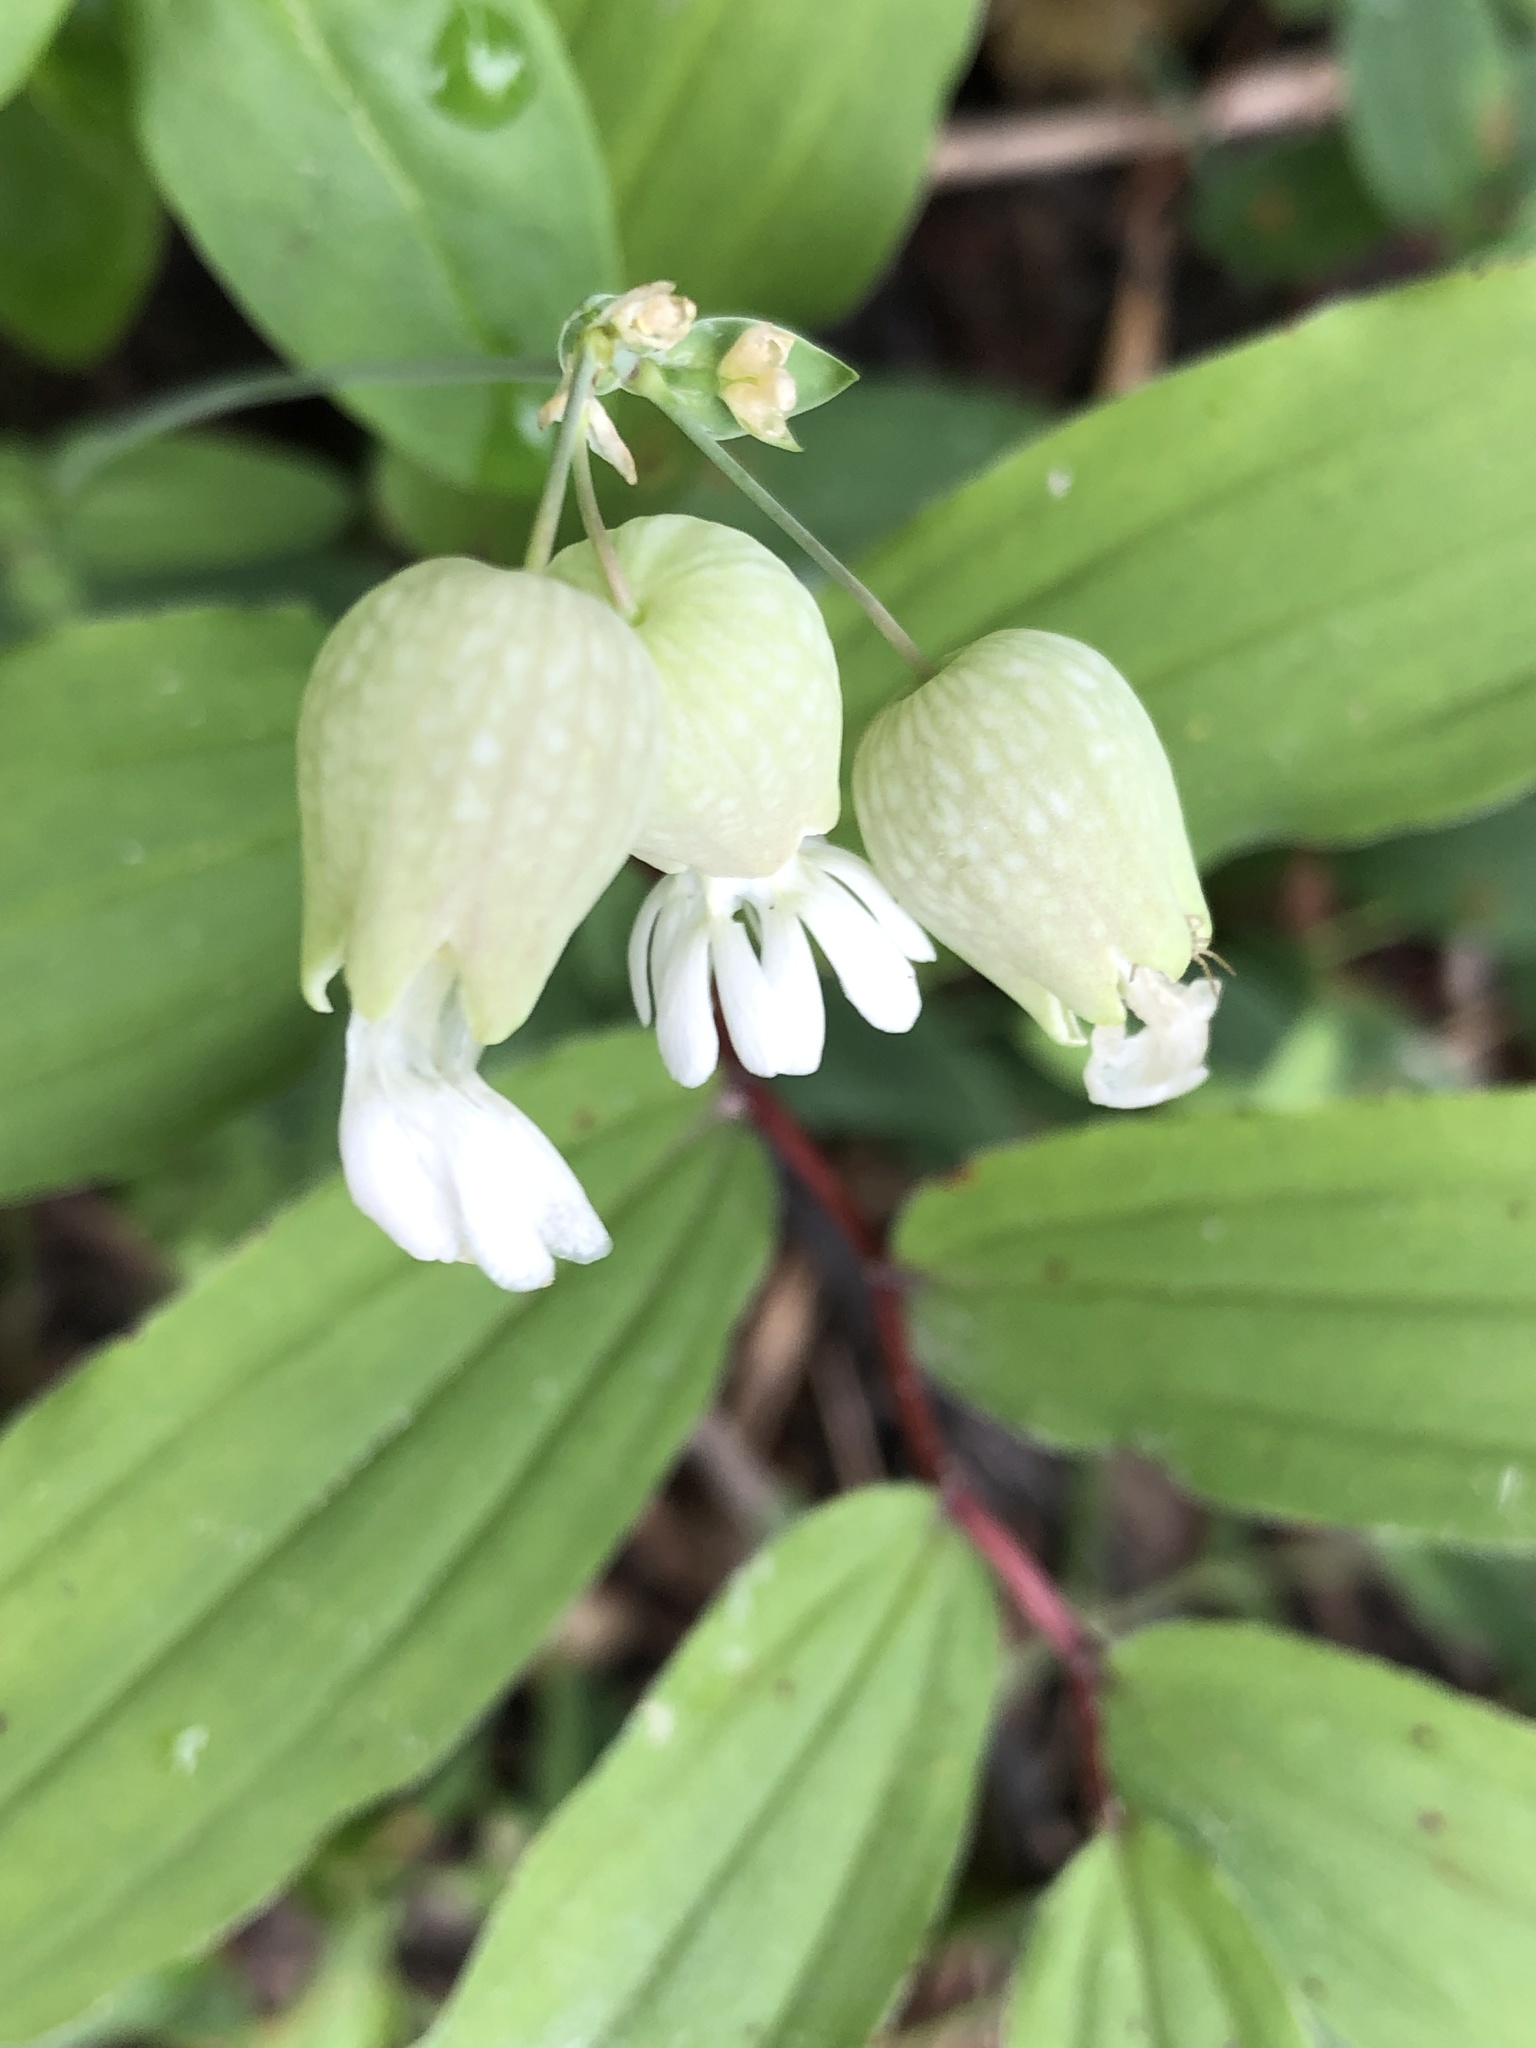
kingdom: Plantae
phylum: Tracheophyta
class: Magnoliopsida
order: Caryophyllales
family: Caryophyllaceae
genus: Silene
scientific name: Silene vulgaris
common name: Bladder campion
